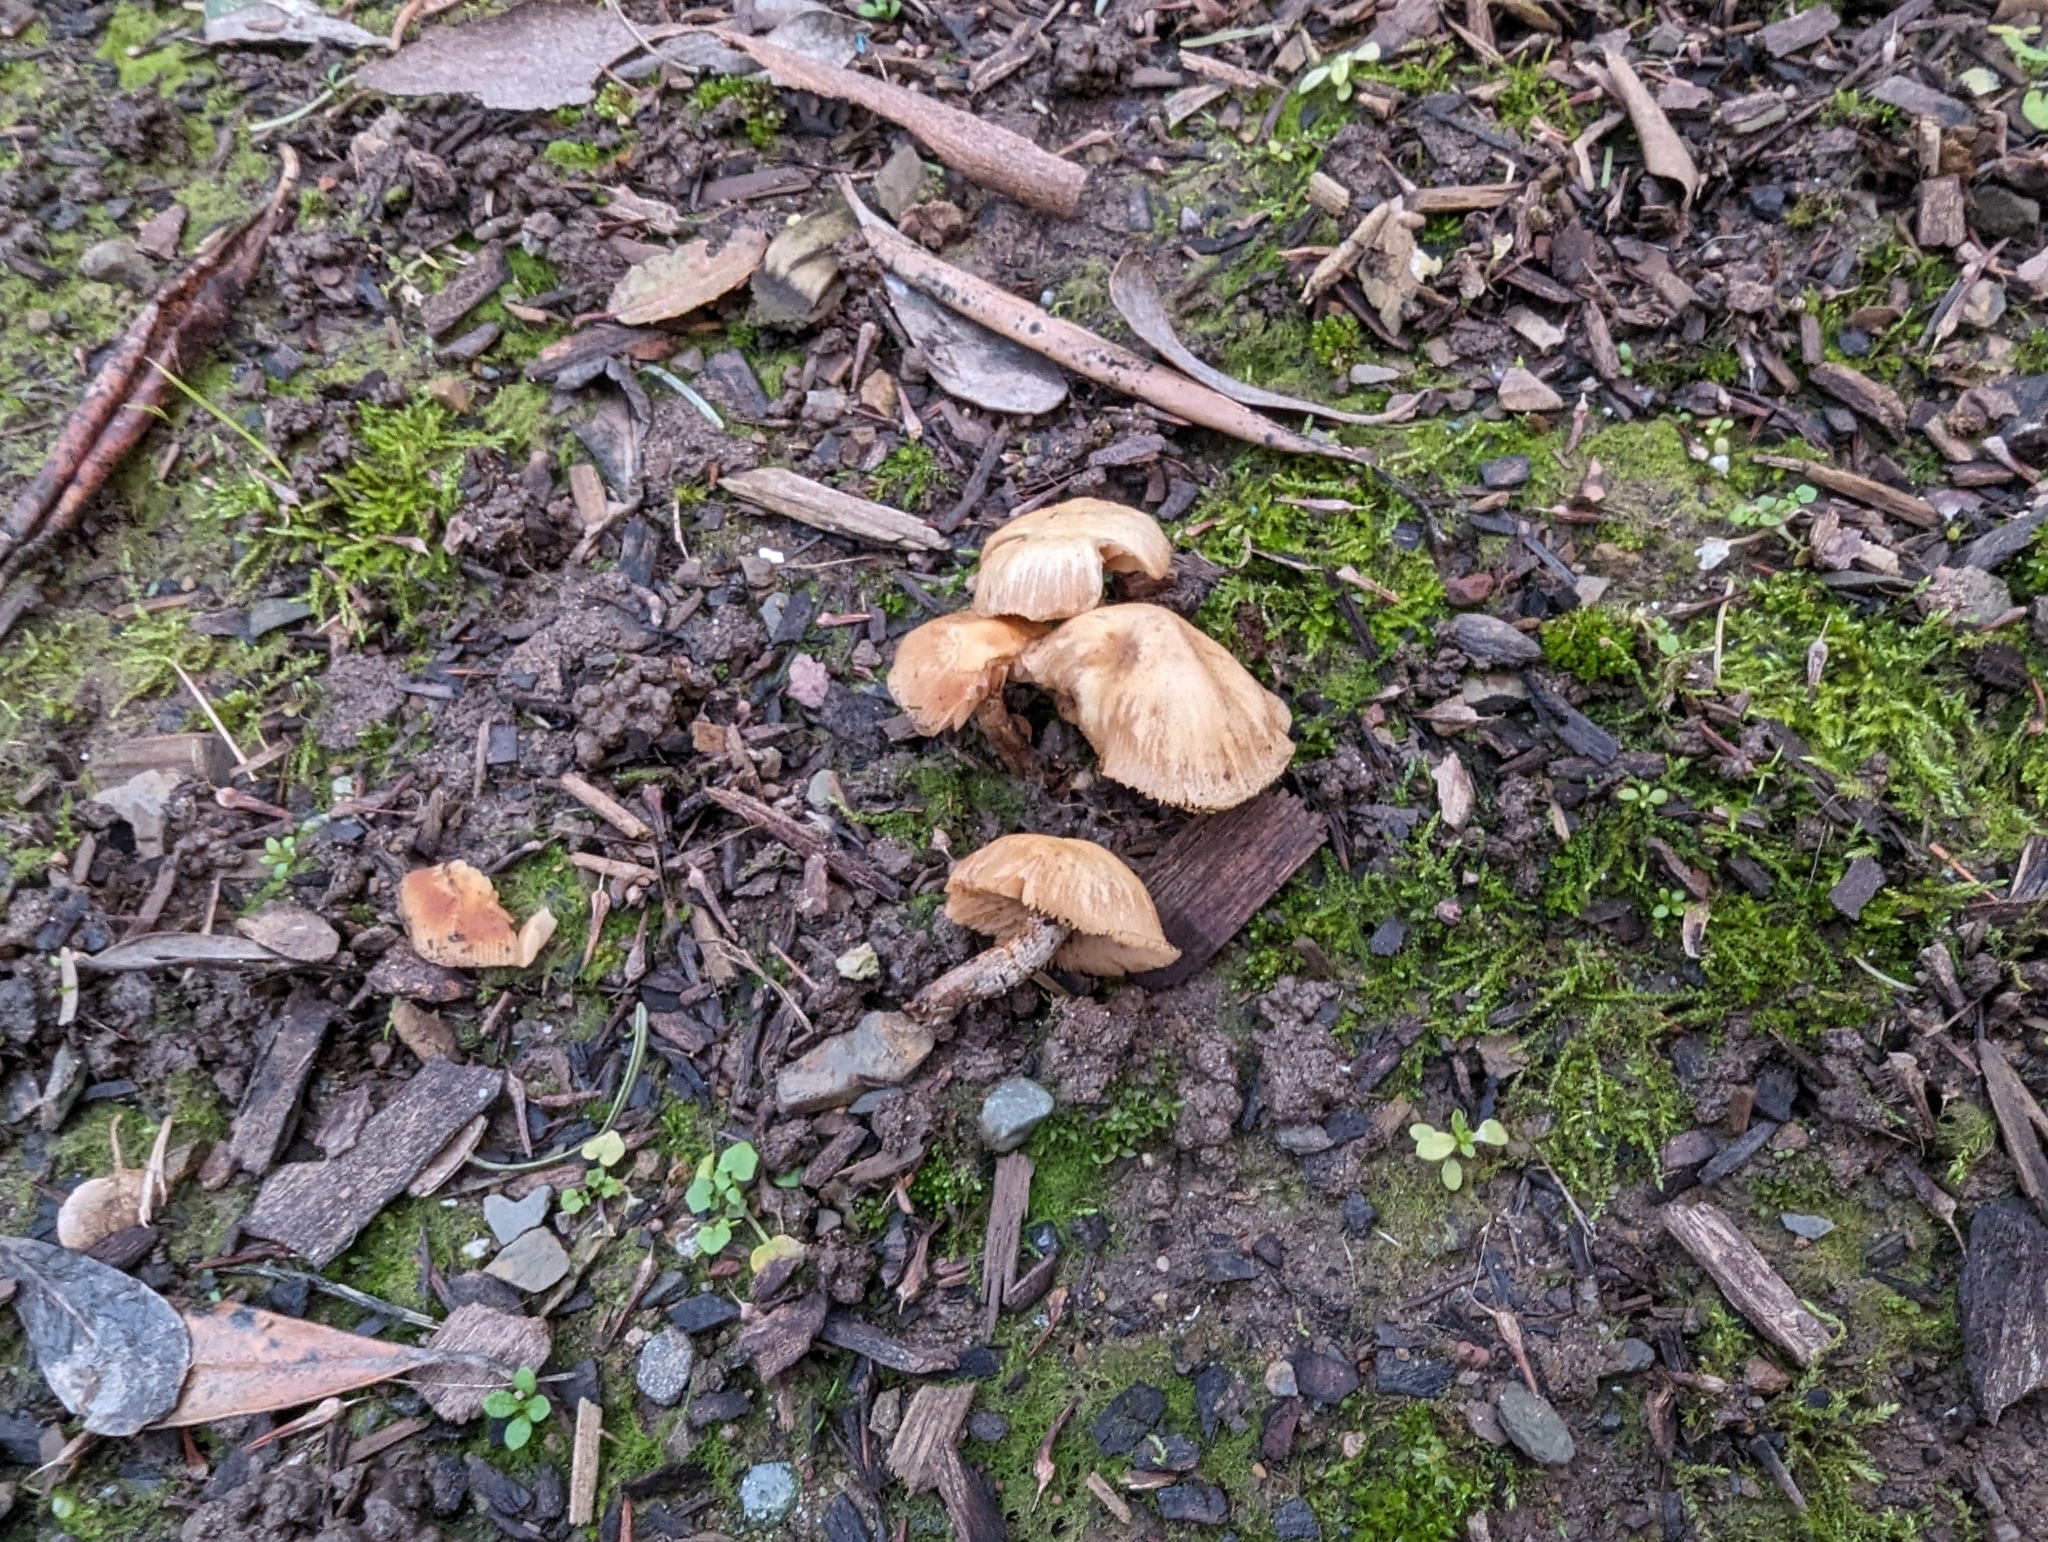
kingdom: Fungi
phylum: Basidiomycota
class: Agaricomycetes
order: Agaricales
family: Tubariaceae
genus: Tubaria
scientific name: Tubaria furfuracea
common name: Scurfy twiglet
